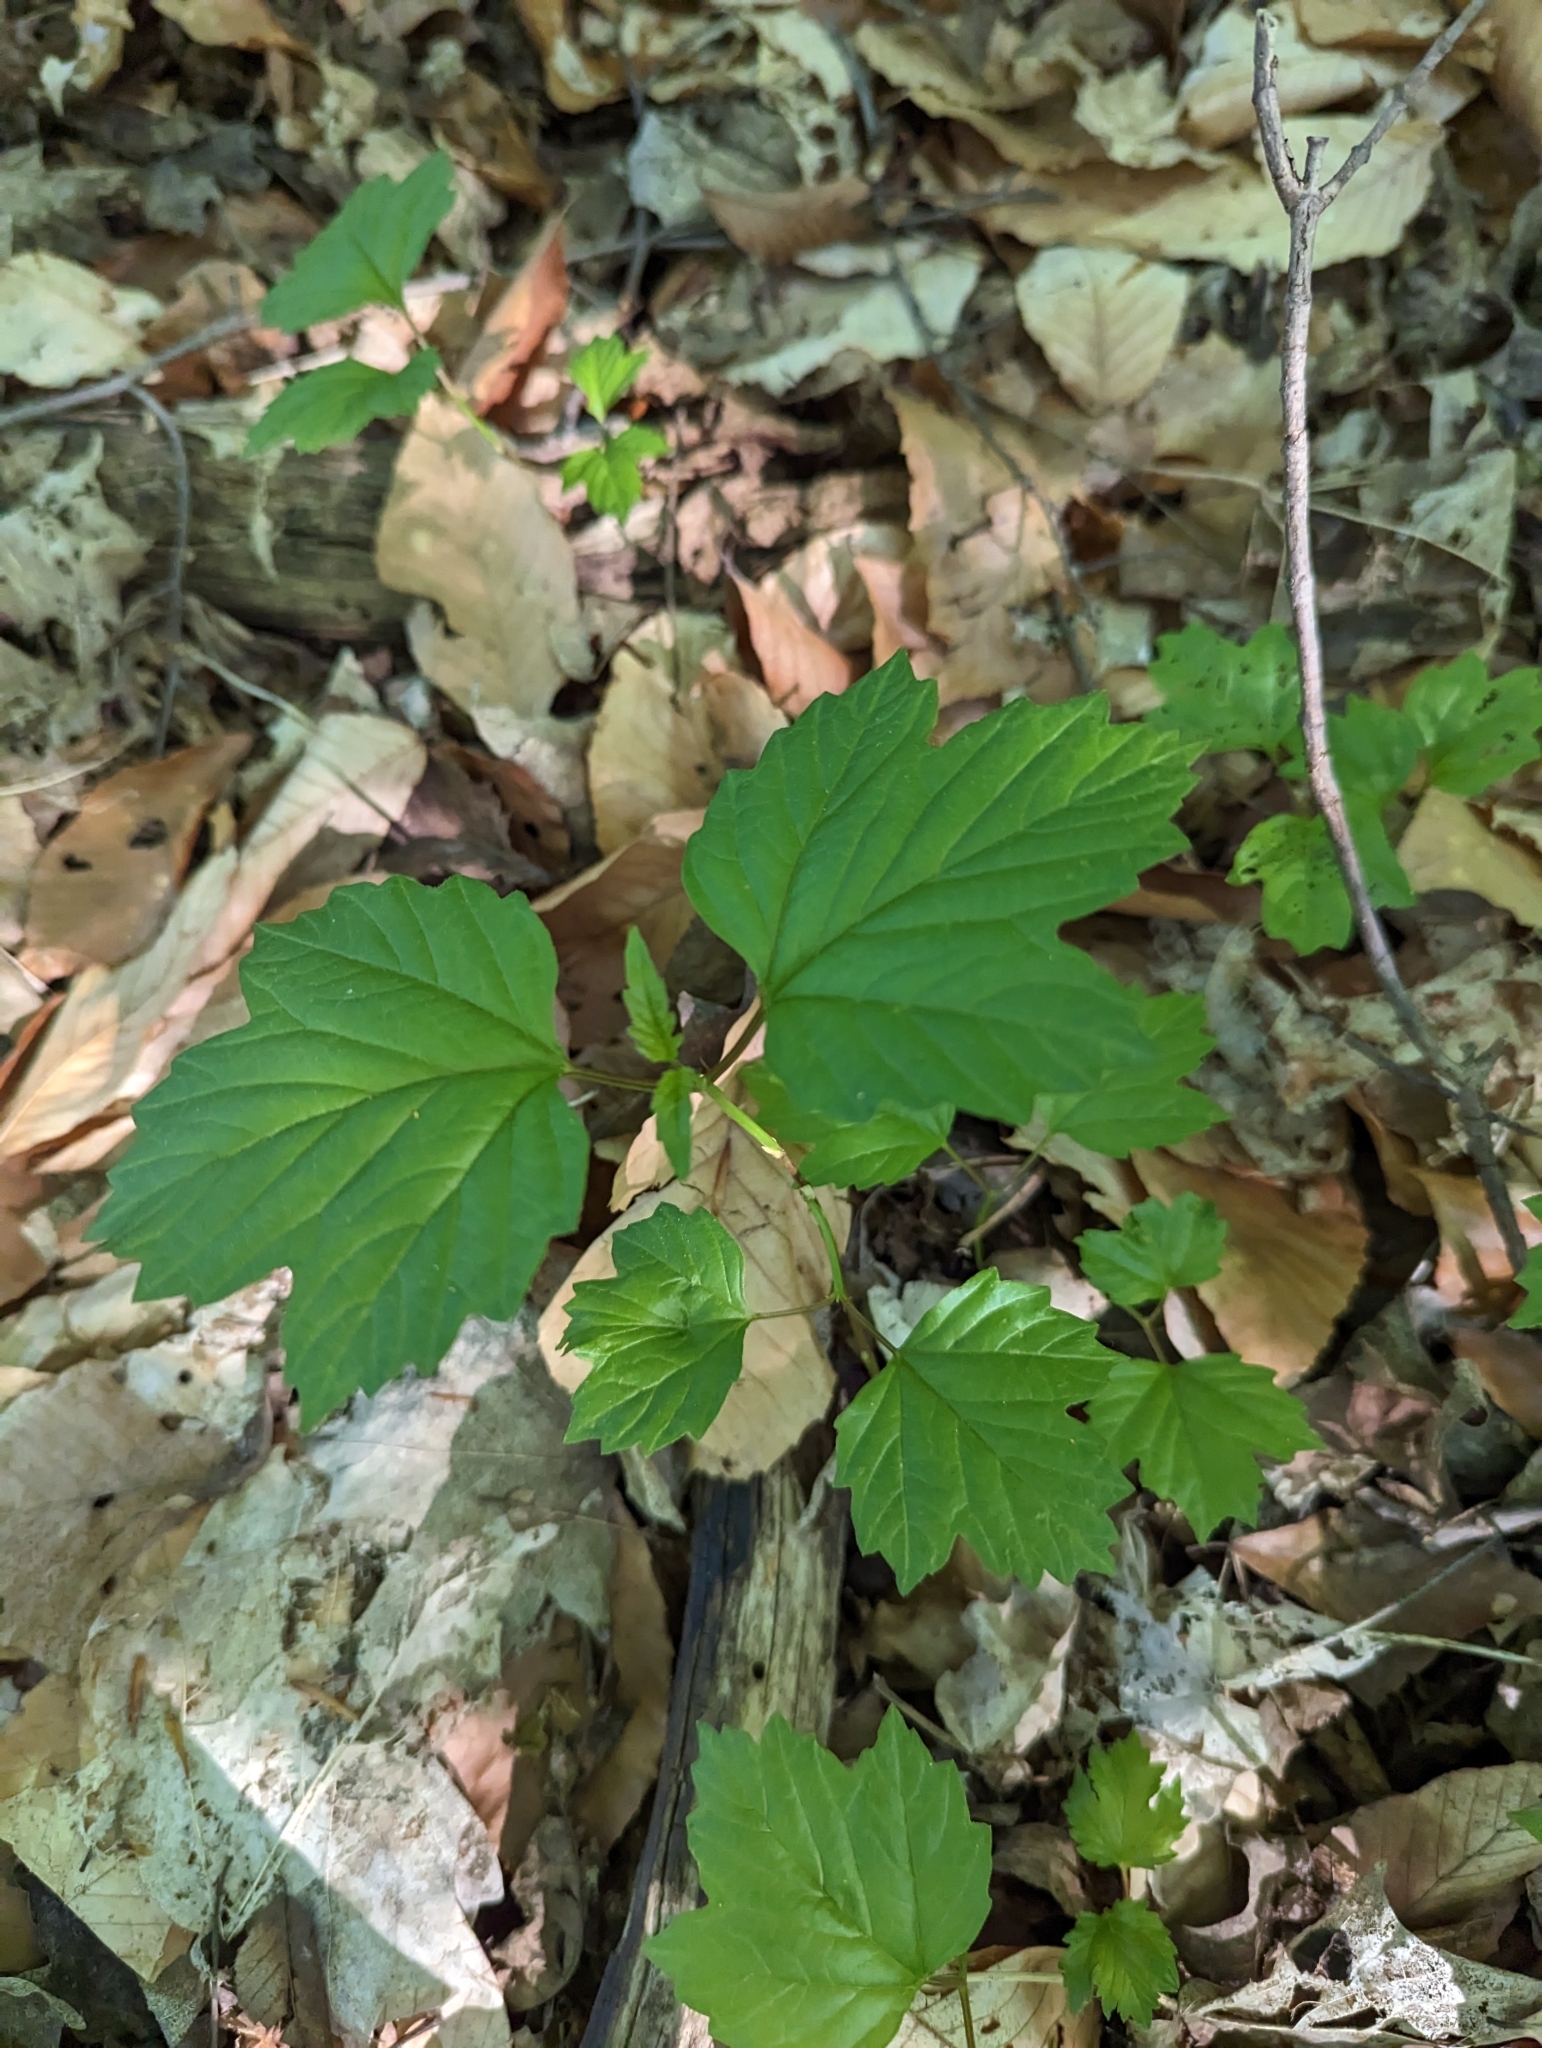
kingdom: Plantae
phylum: Tracheophyta
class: Magnoliopsida
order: Dipsacales
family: Viburnaceae
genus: Viburnum
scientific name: Viburnum acerifolium
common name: Dockmackie
